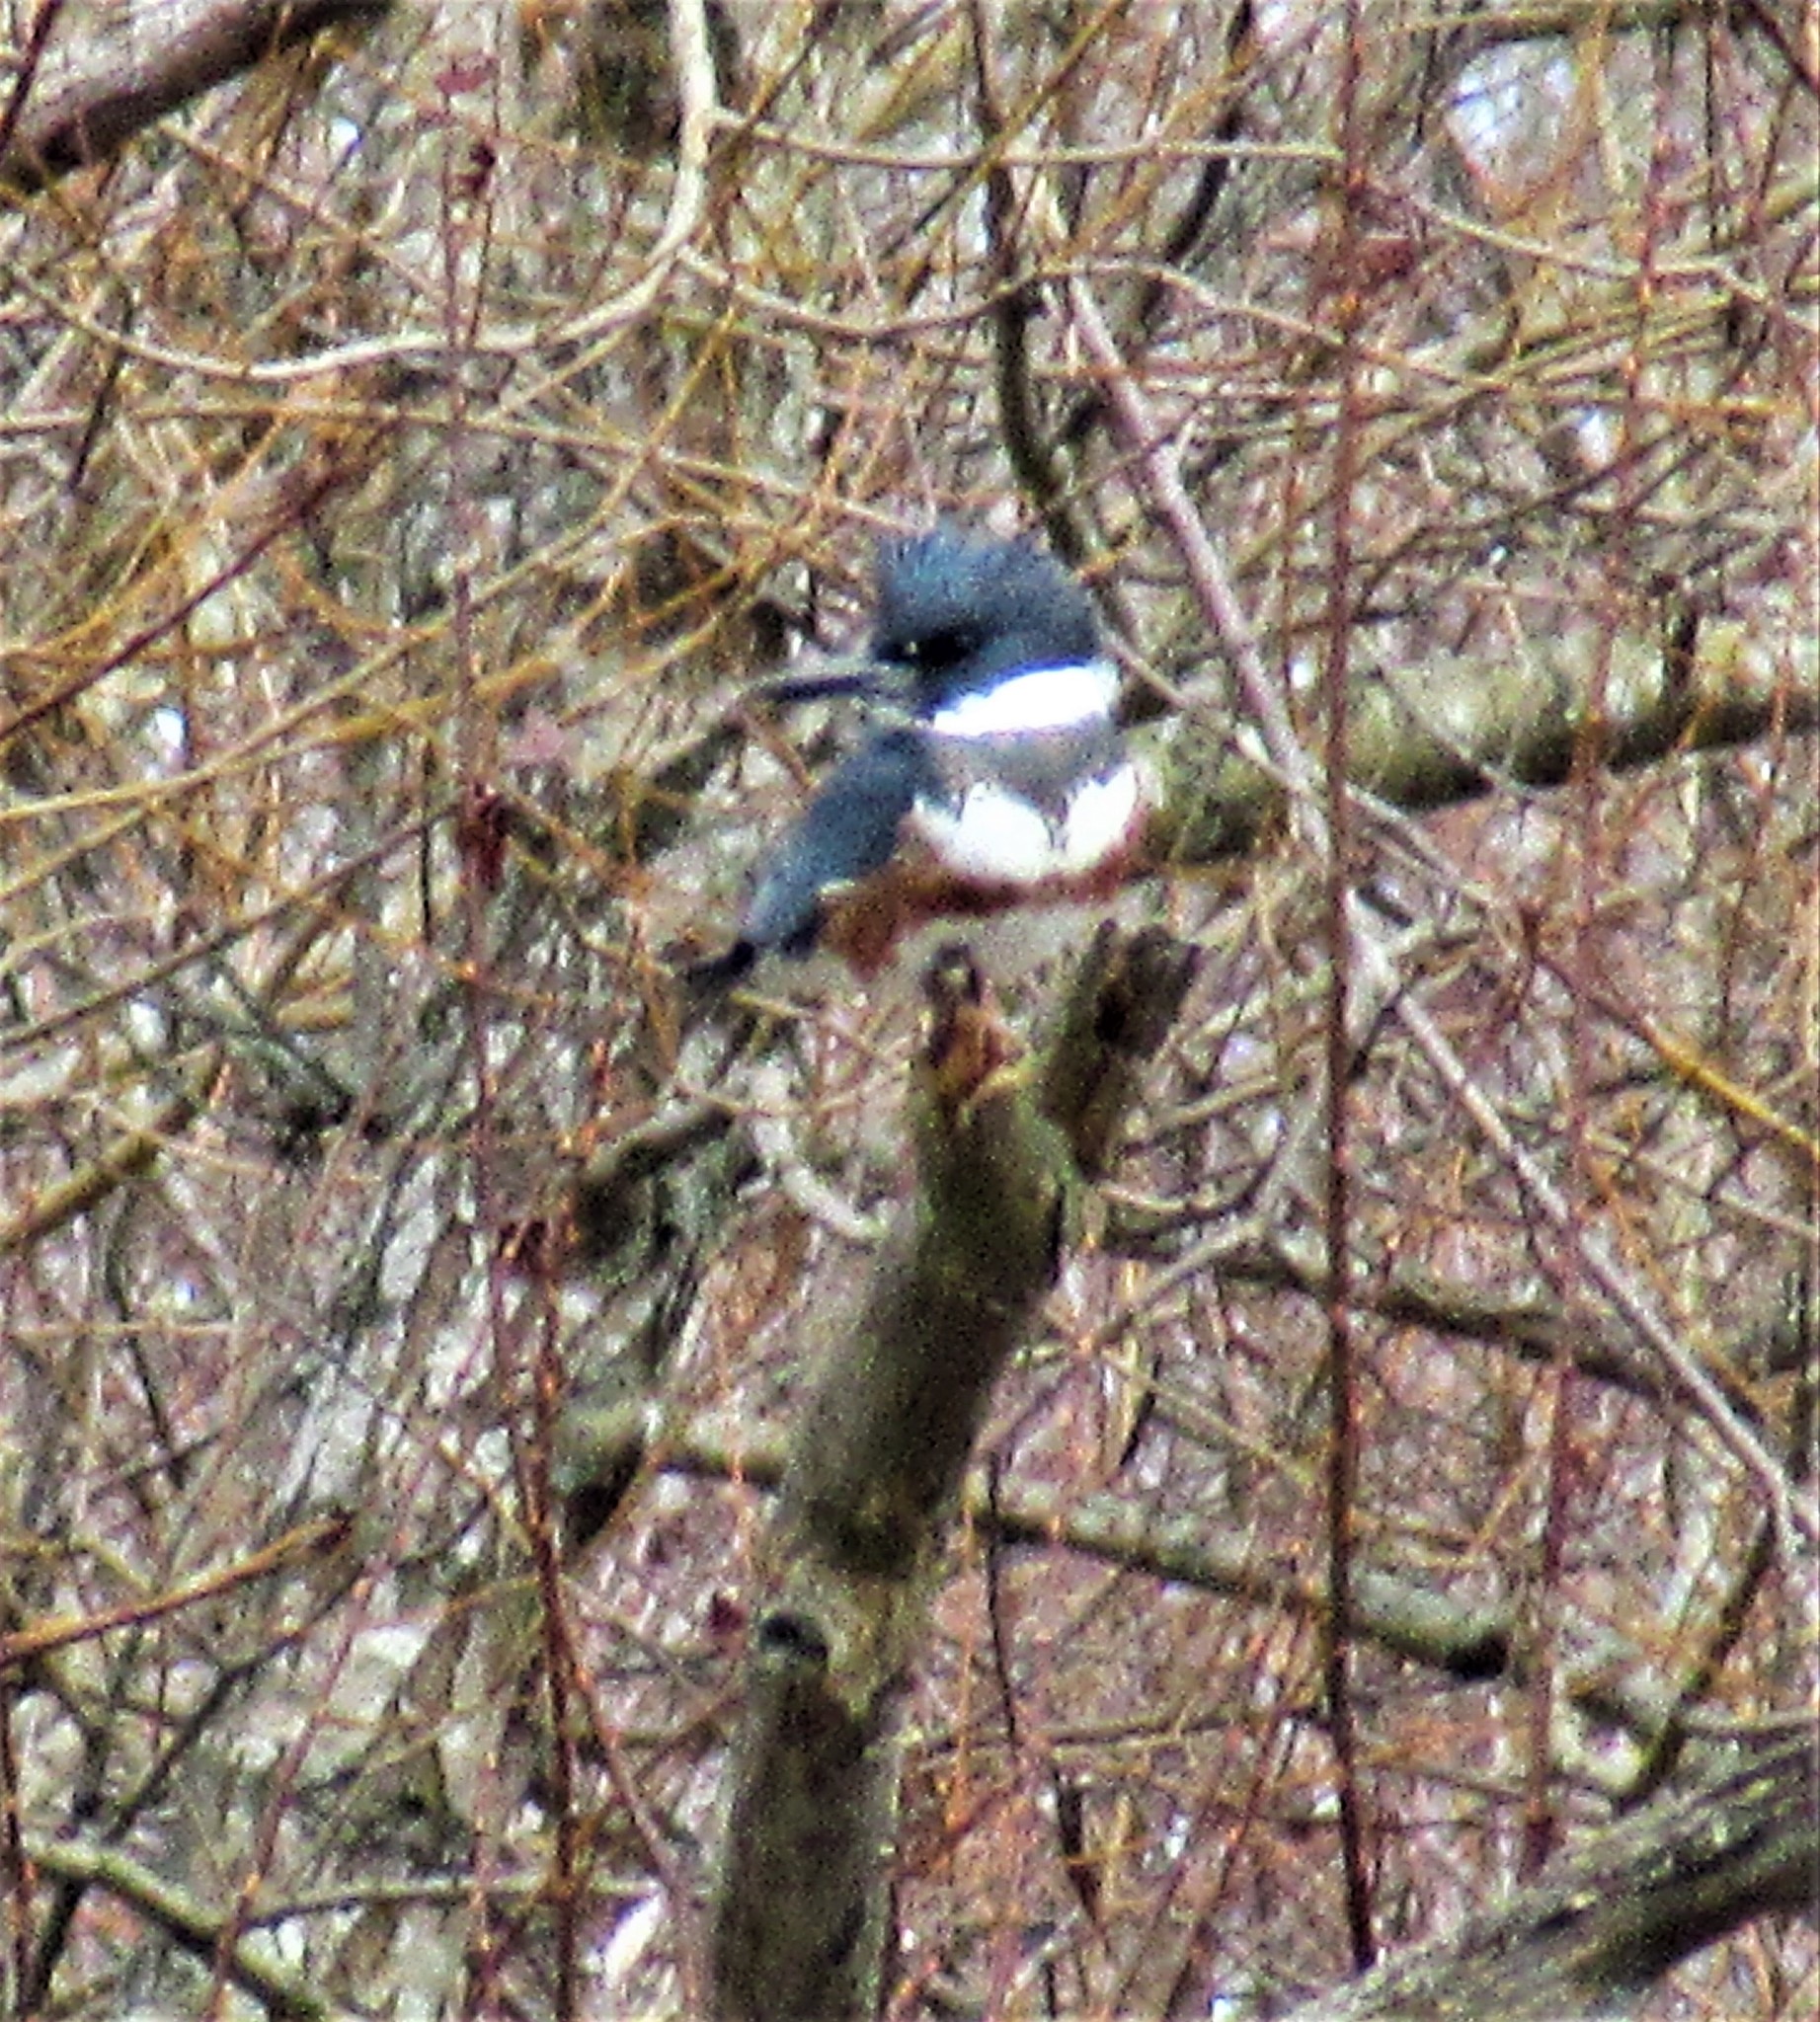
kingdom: Animalia
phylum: Chordata
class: Aves
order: Coraciiformes
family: Alcedinidae
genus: Megaceryle
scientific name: Megaceryle alcyon
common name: Belted kingfisher
